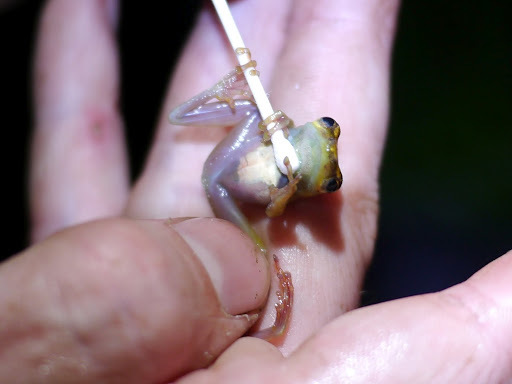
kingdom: Animalia
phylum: Chordata
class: Amphibia
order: Anura
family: Hyperoliidae
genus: Hyperolius
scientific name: Hyperolius ocellatus
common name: Golden-eyed reed frog
